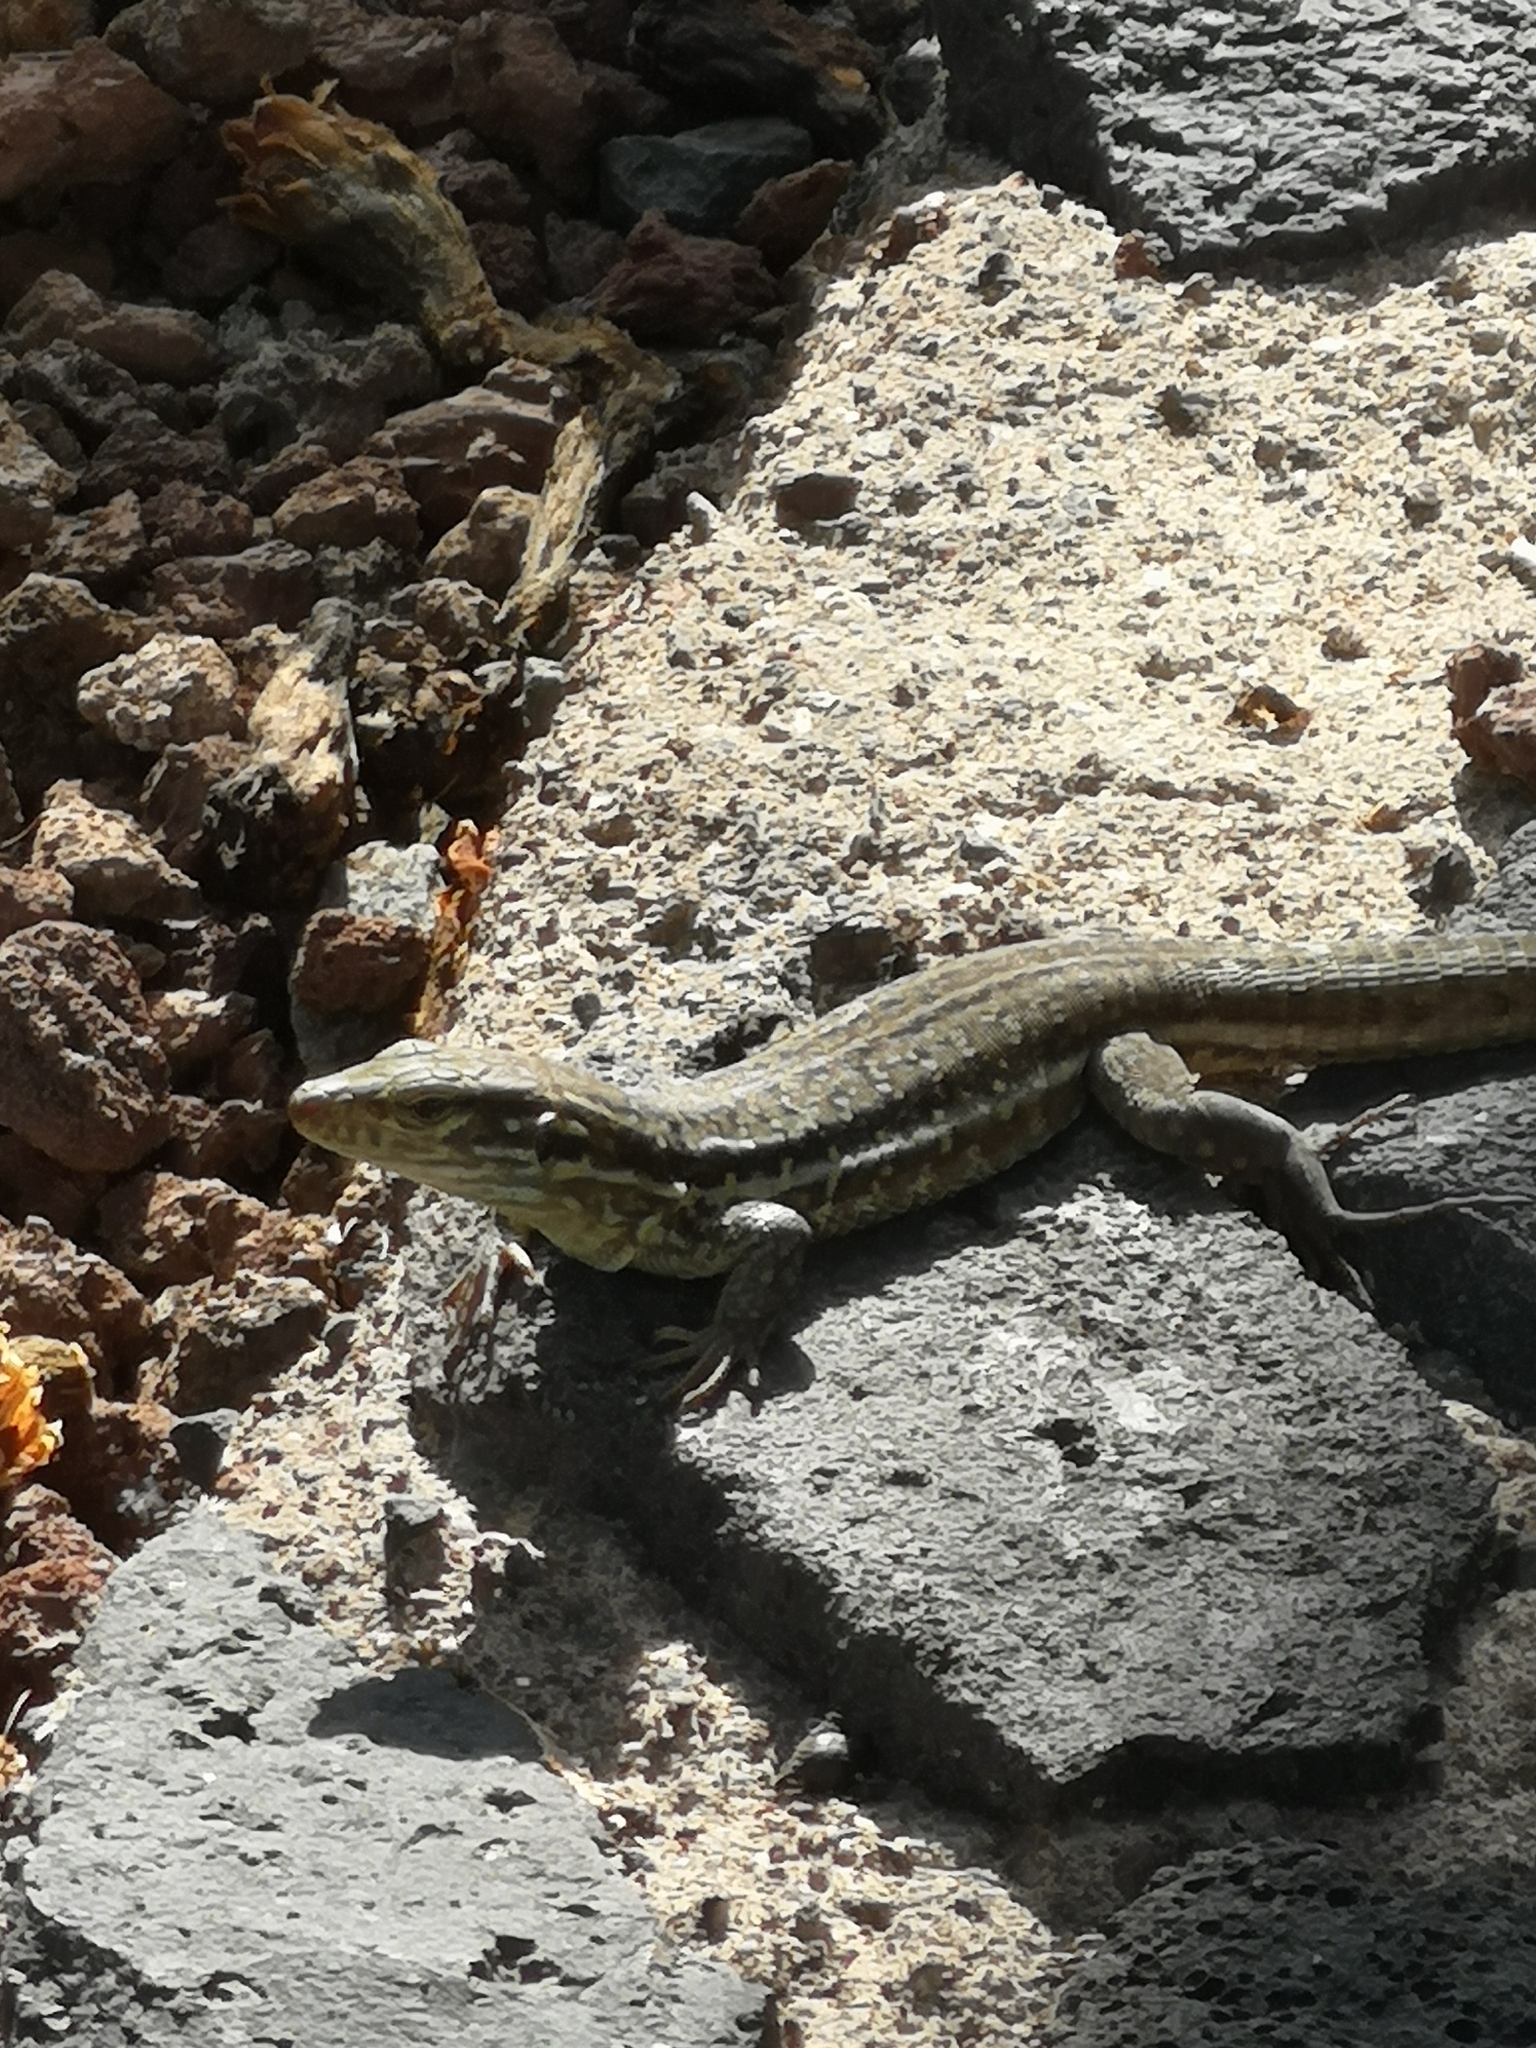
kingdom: Animalia
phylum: Chordata
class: Squamata
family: Lacertidae
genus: Gallotia
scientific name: Gallotia galloti
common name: Gallot's lizard
